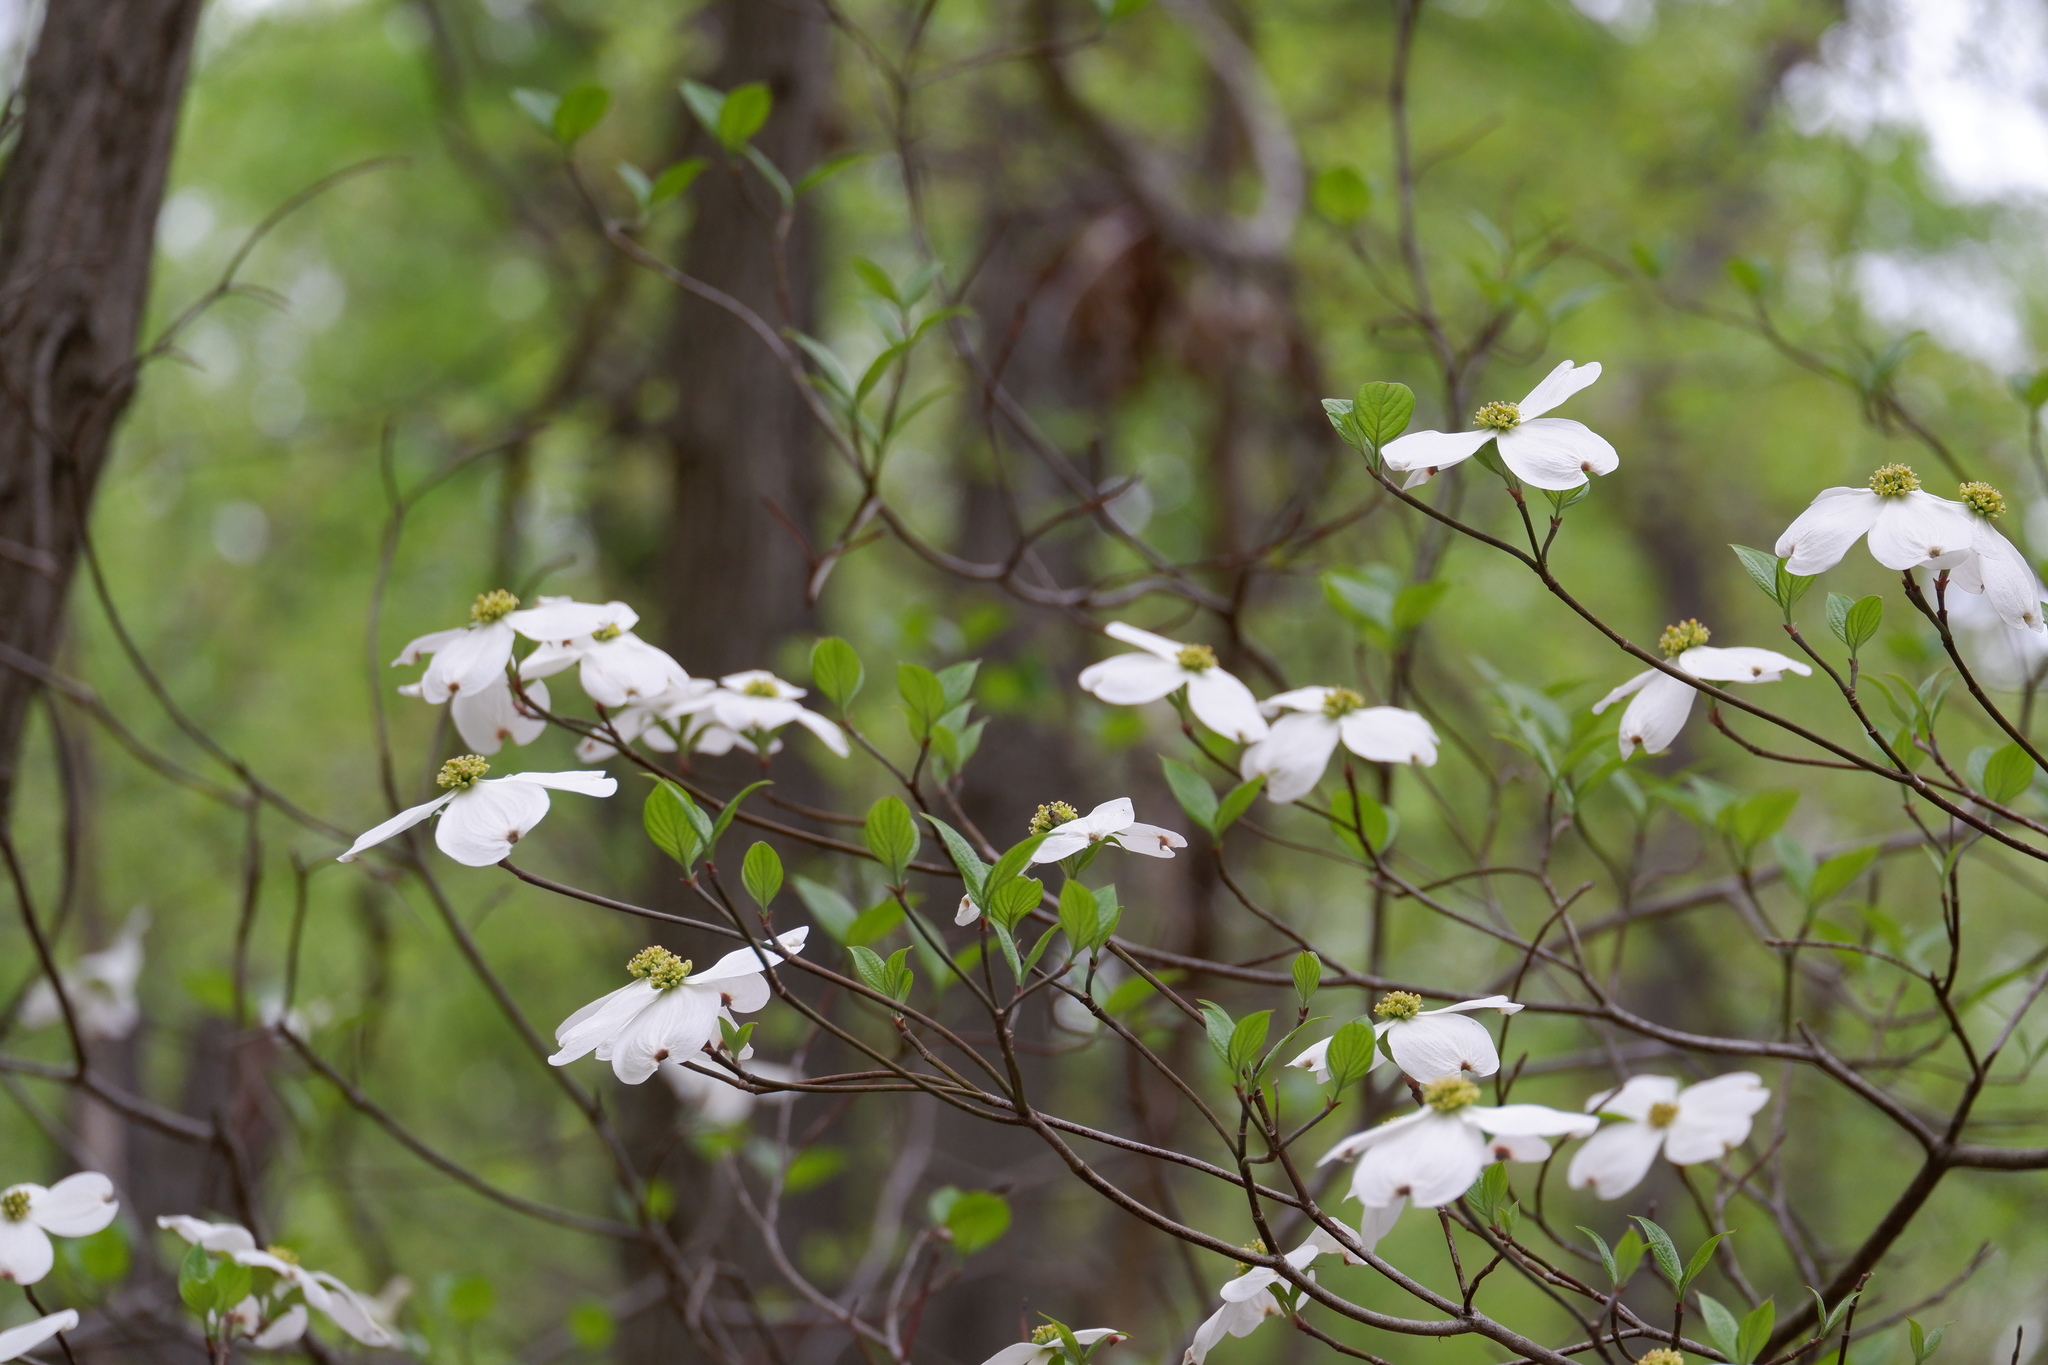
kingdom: Plantae
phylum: Tracheophyta
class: Magnoliopsida
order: Cornales
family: Cornaceae
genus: Cornus
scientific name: Cornus florida
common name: Flowering dogwood
